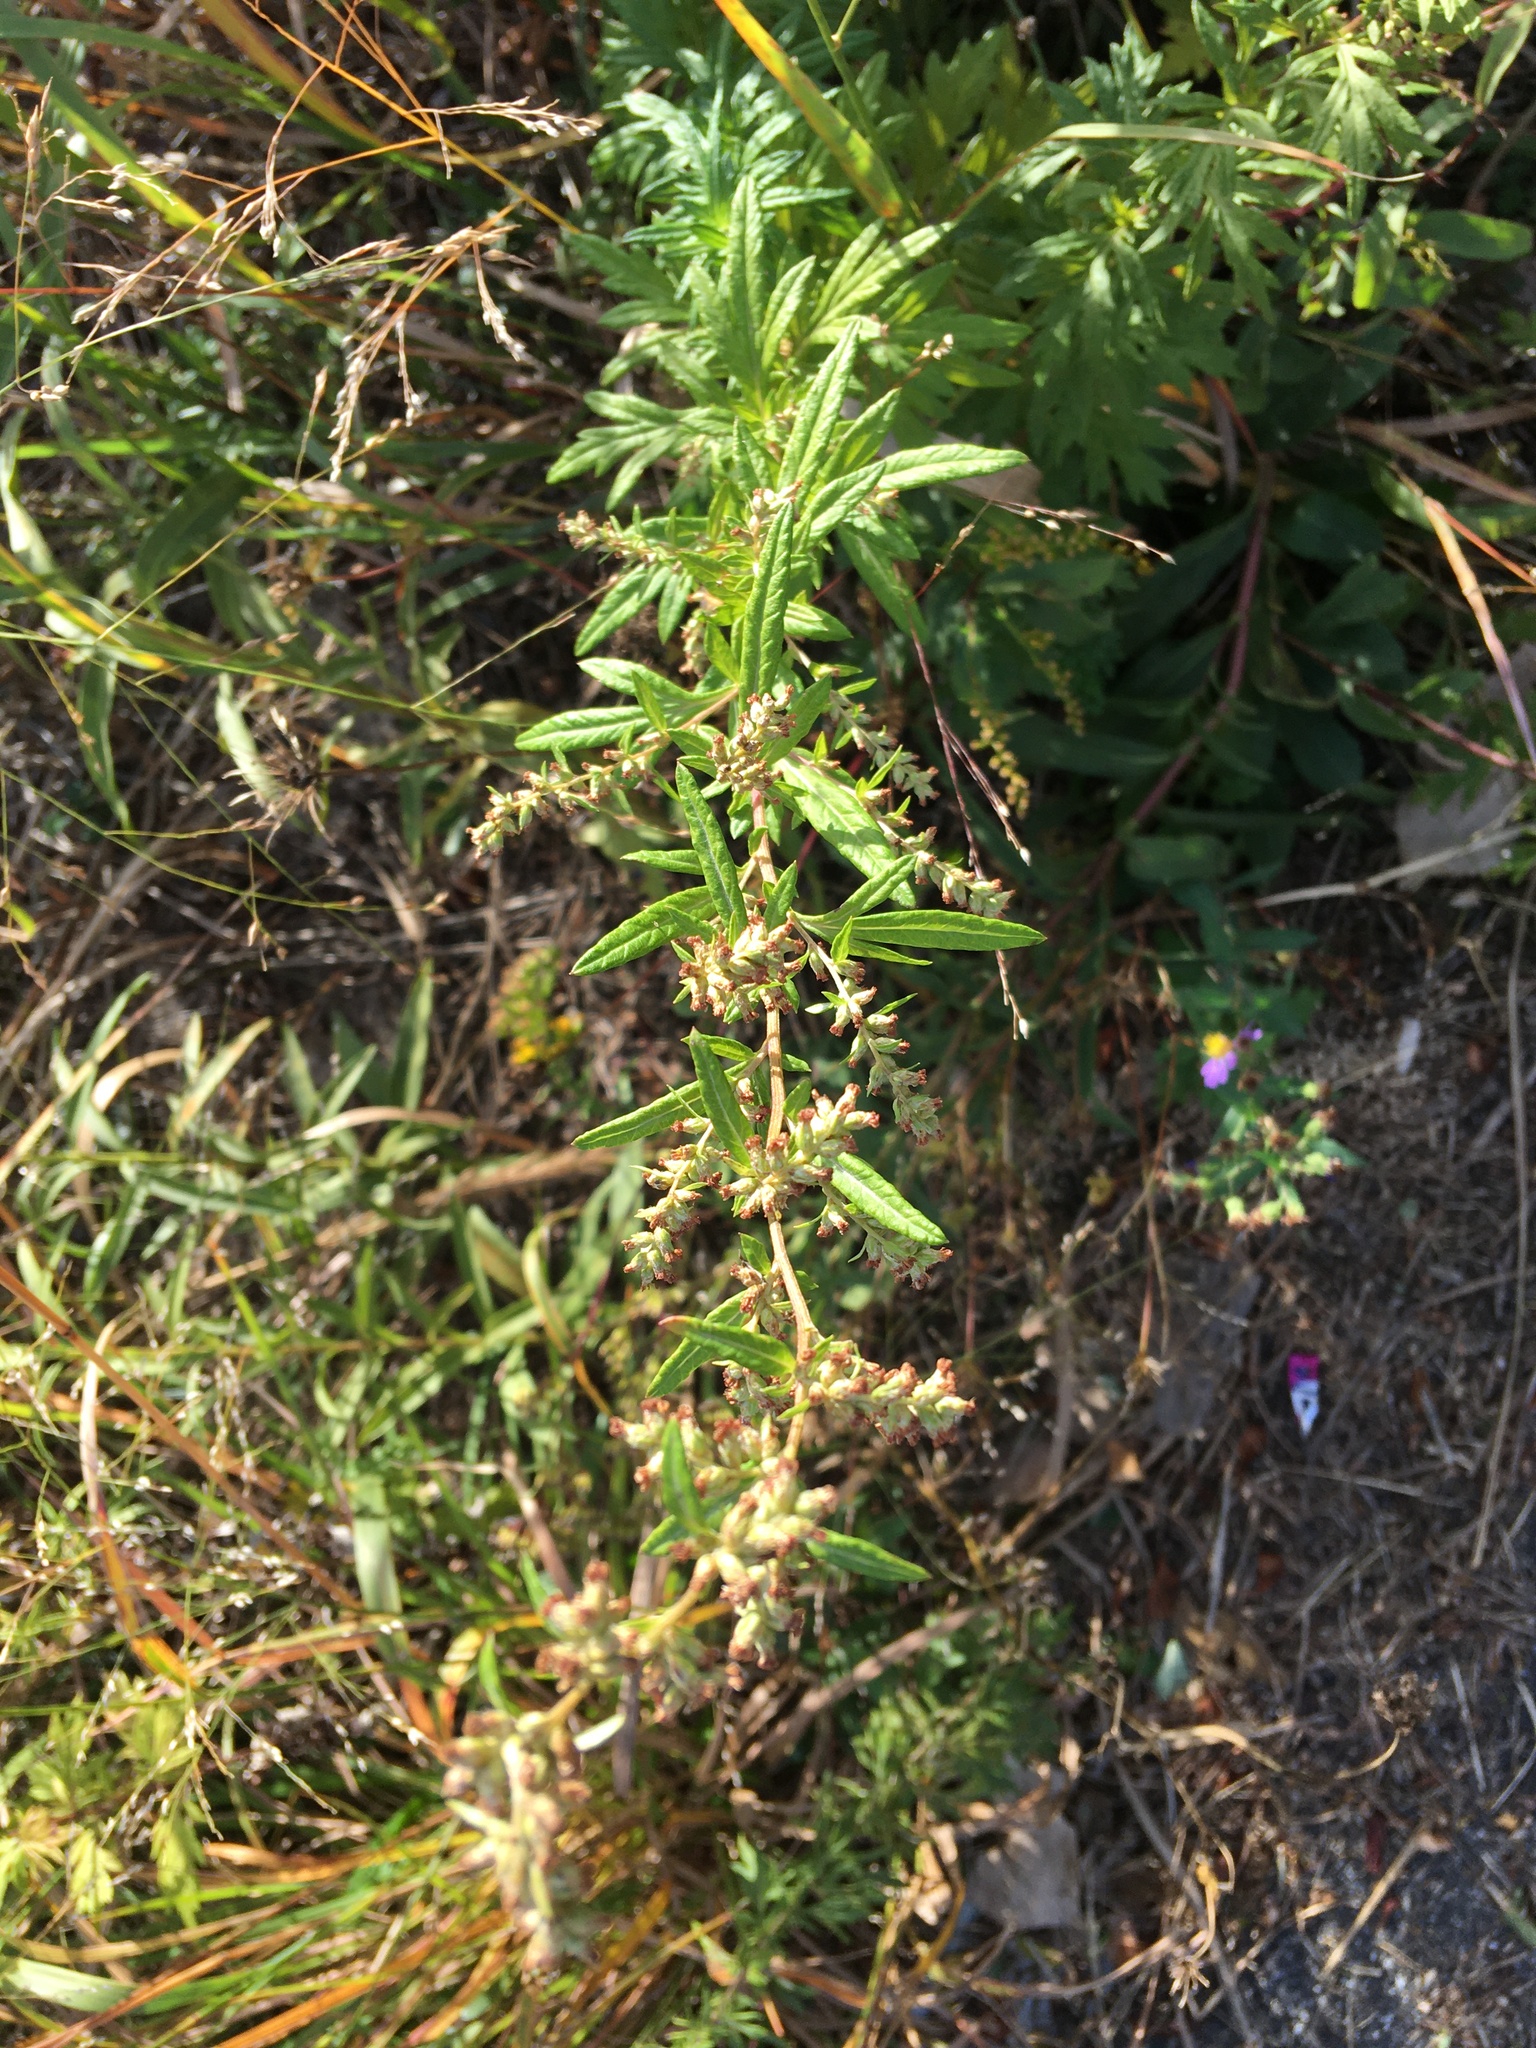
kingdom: Plantae
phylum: Tracheophyta
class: Magnoliopsida
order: Asterales
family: Asteraceae
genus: Artemisia
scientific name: Artemisia vulgaris
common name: Mugwort
